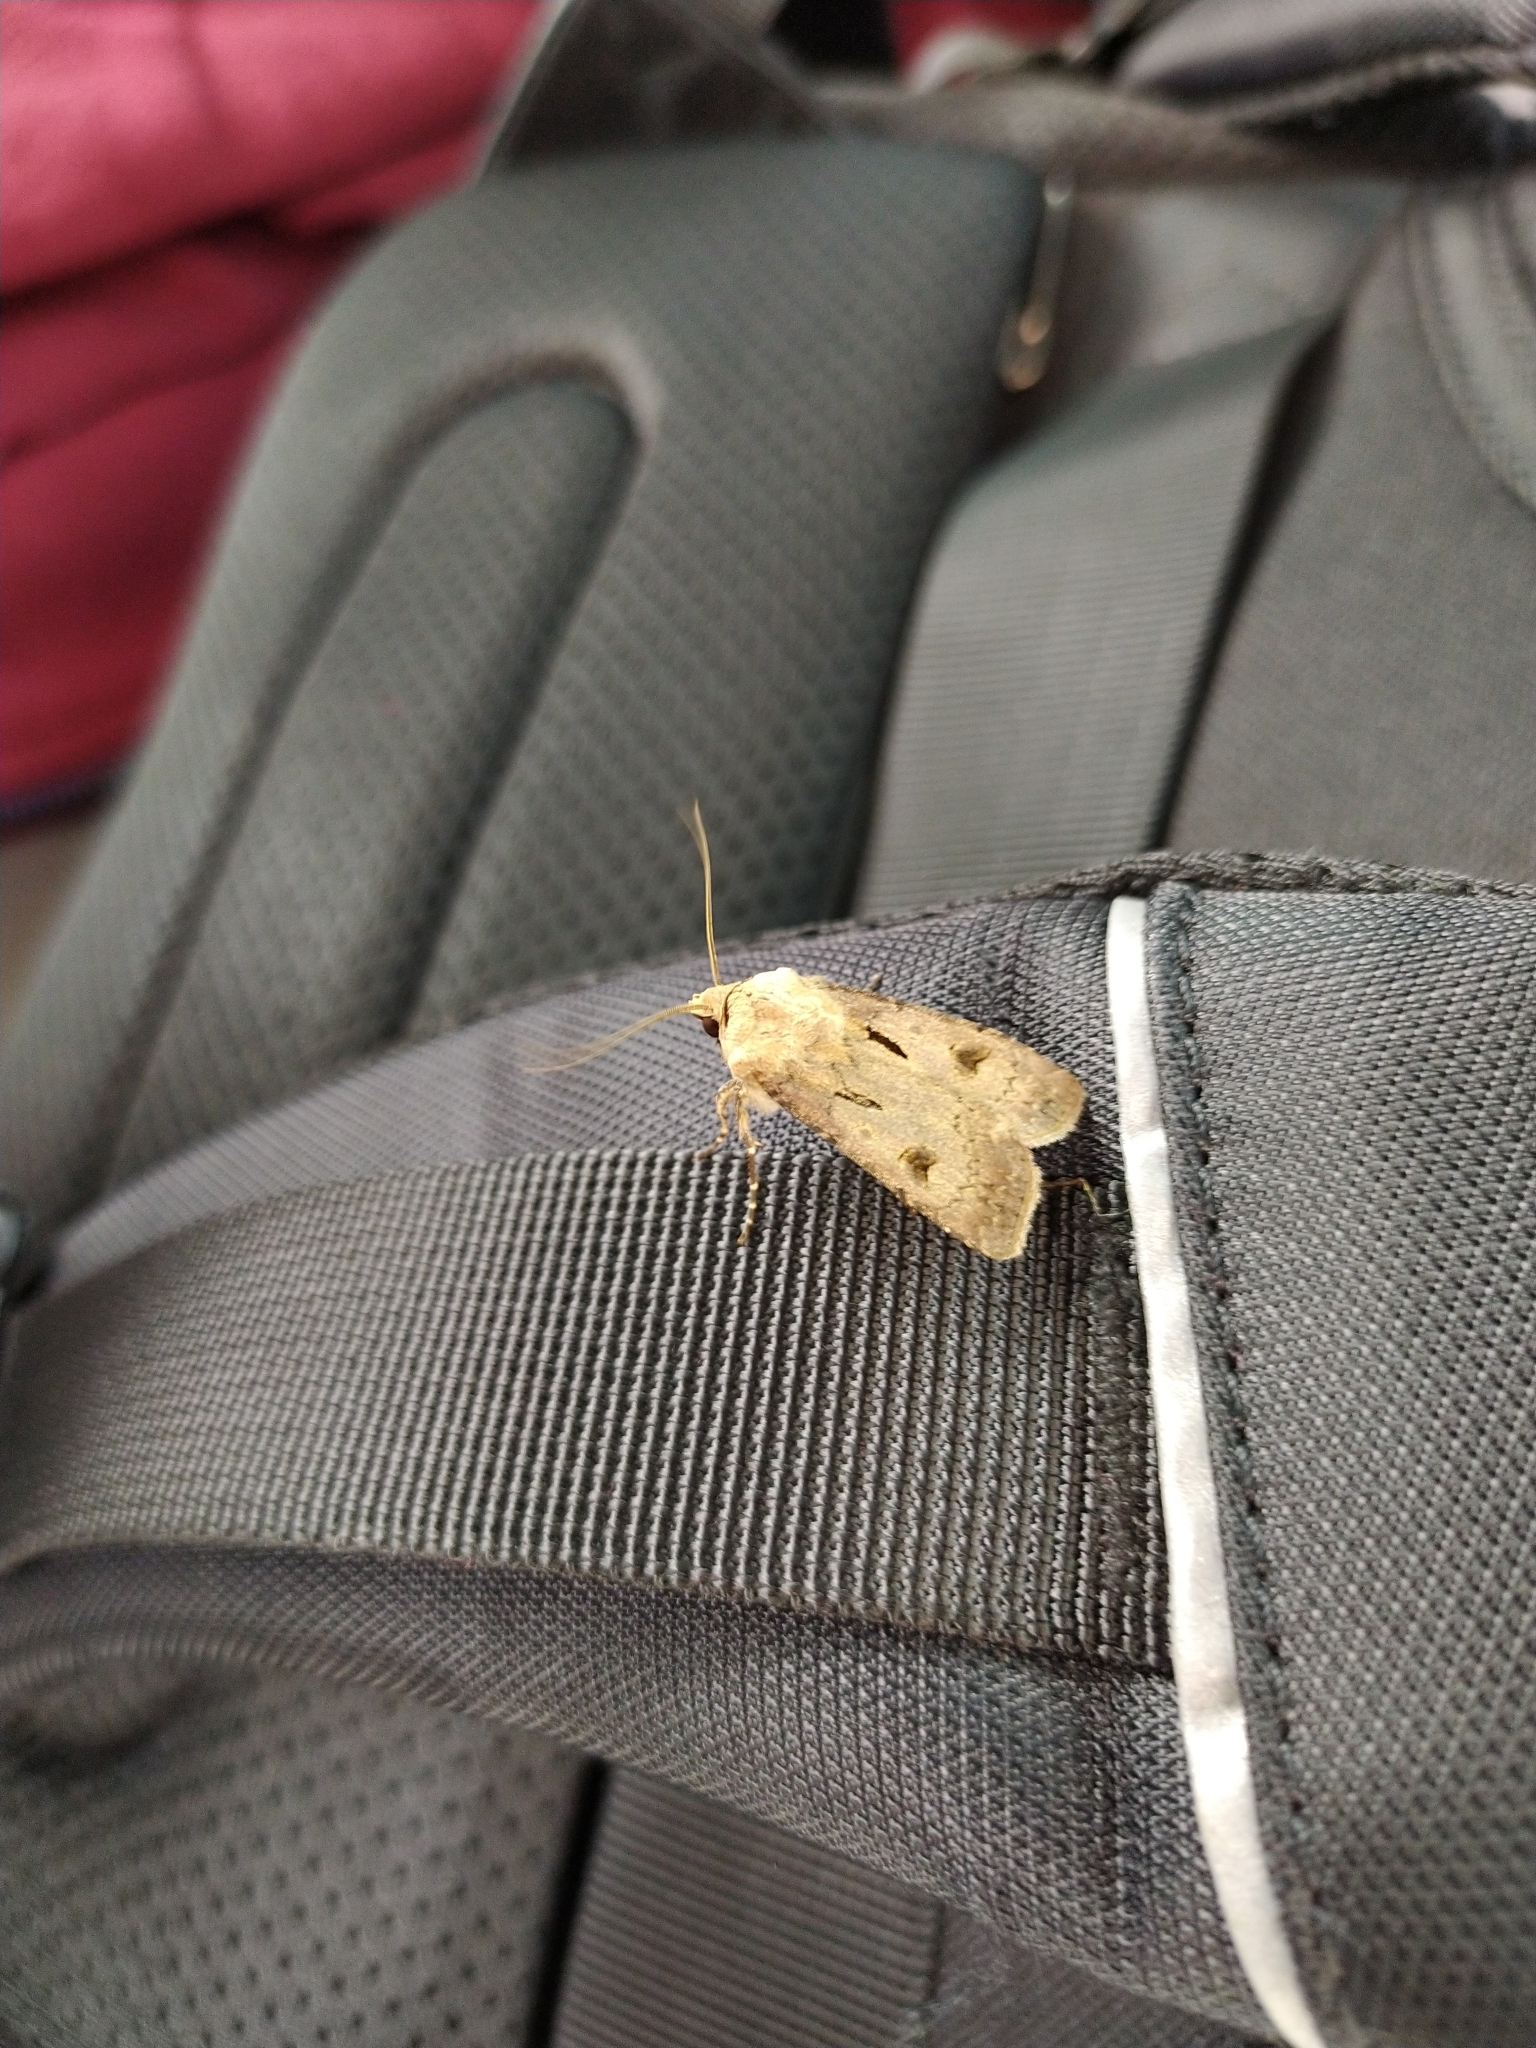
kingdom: Animalia
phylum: Arthropoda
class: Insecta
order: Lepidoptera
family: Noctuidae
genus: Agrotis
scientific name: Agrotis exclamationis
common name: Heart and dart
